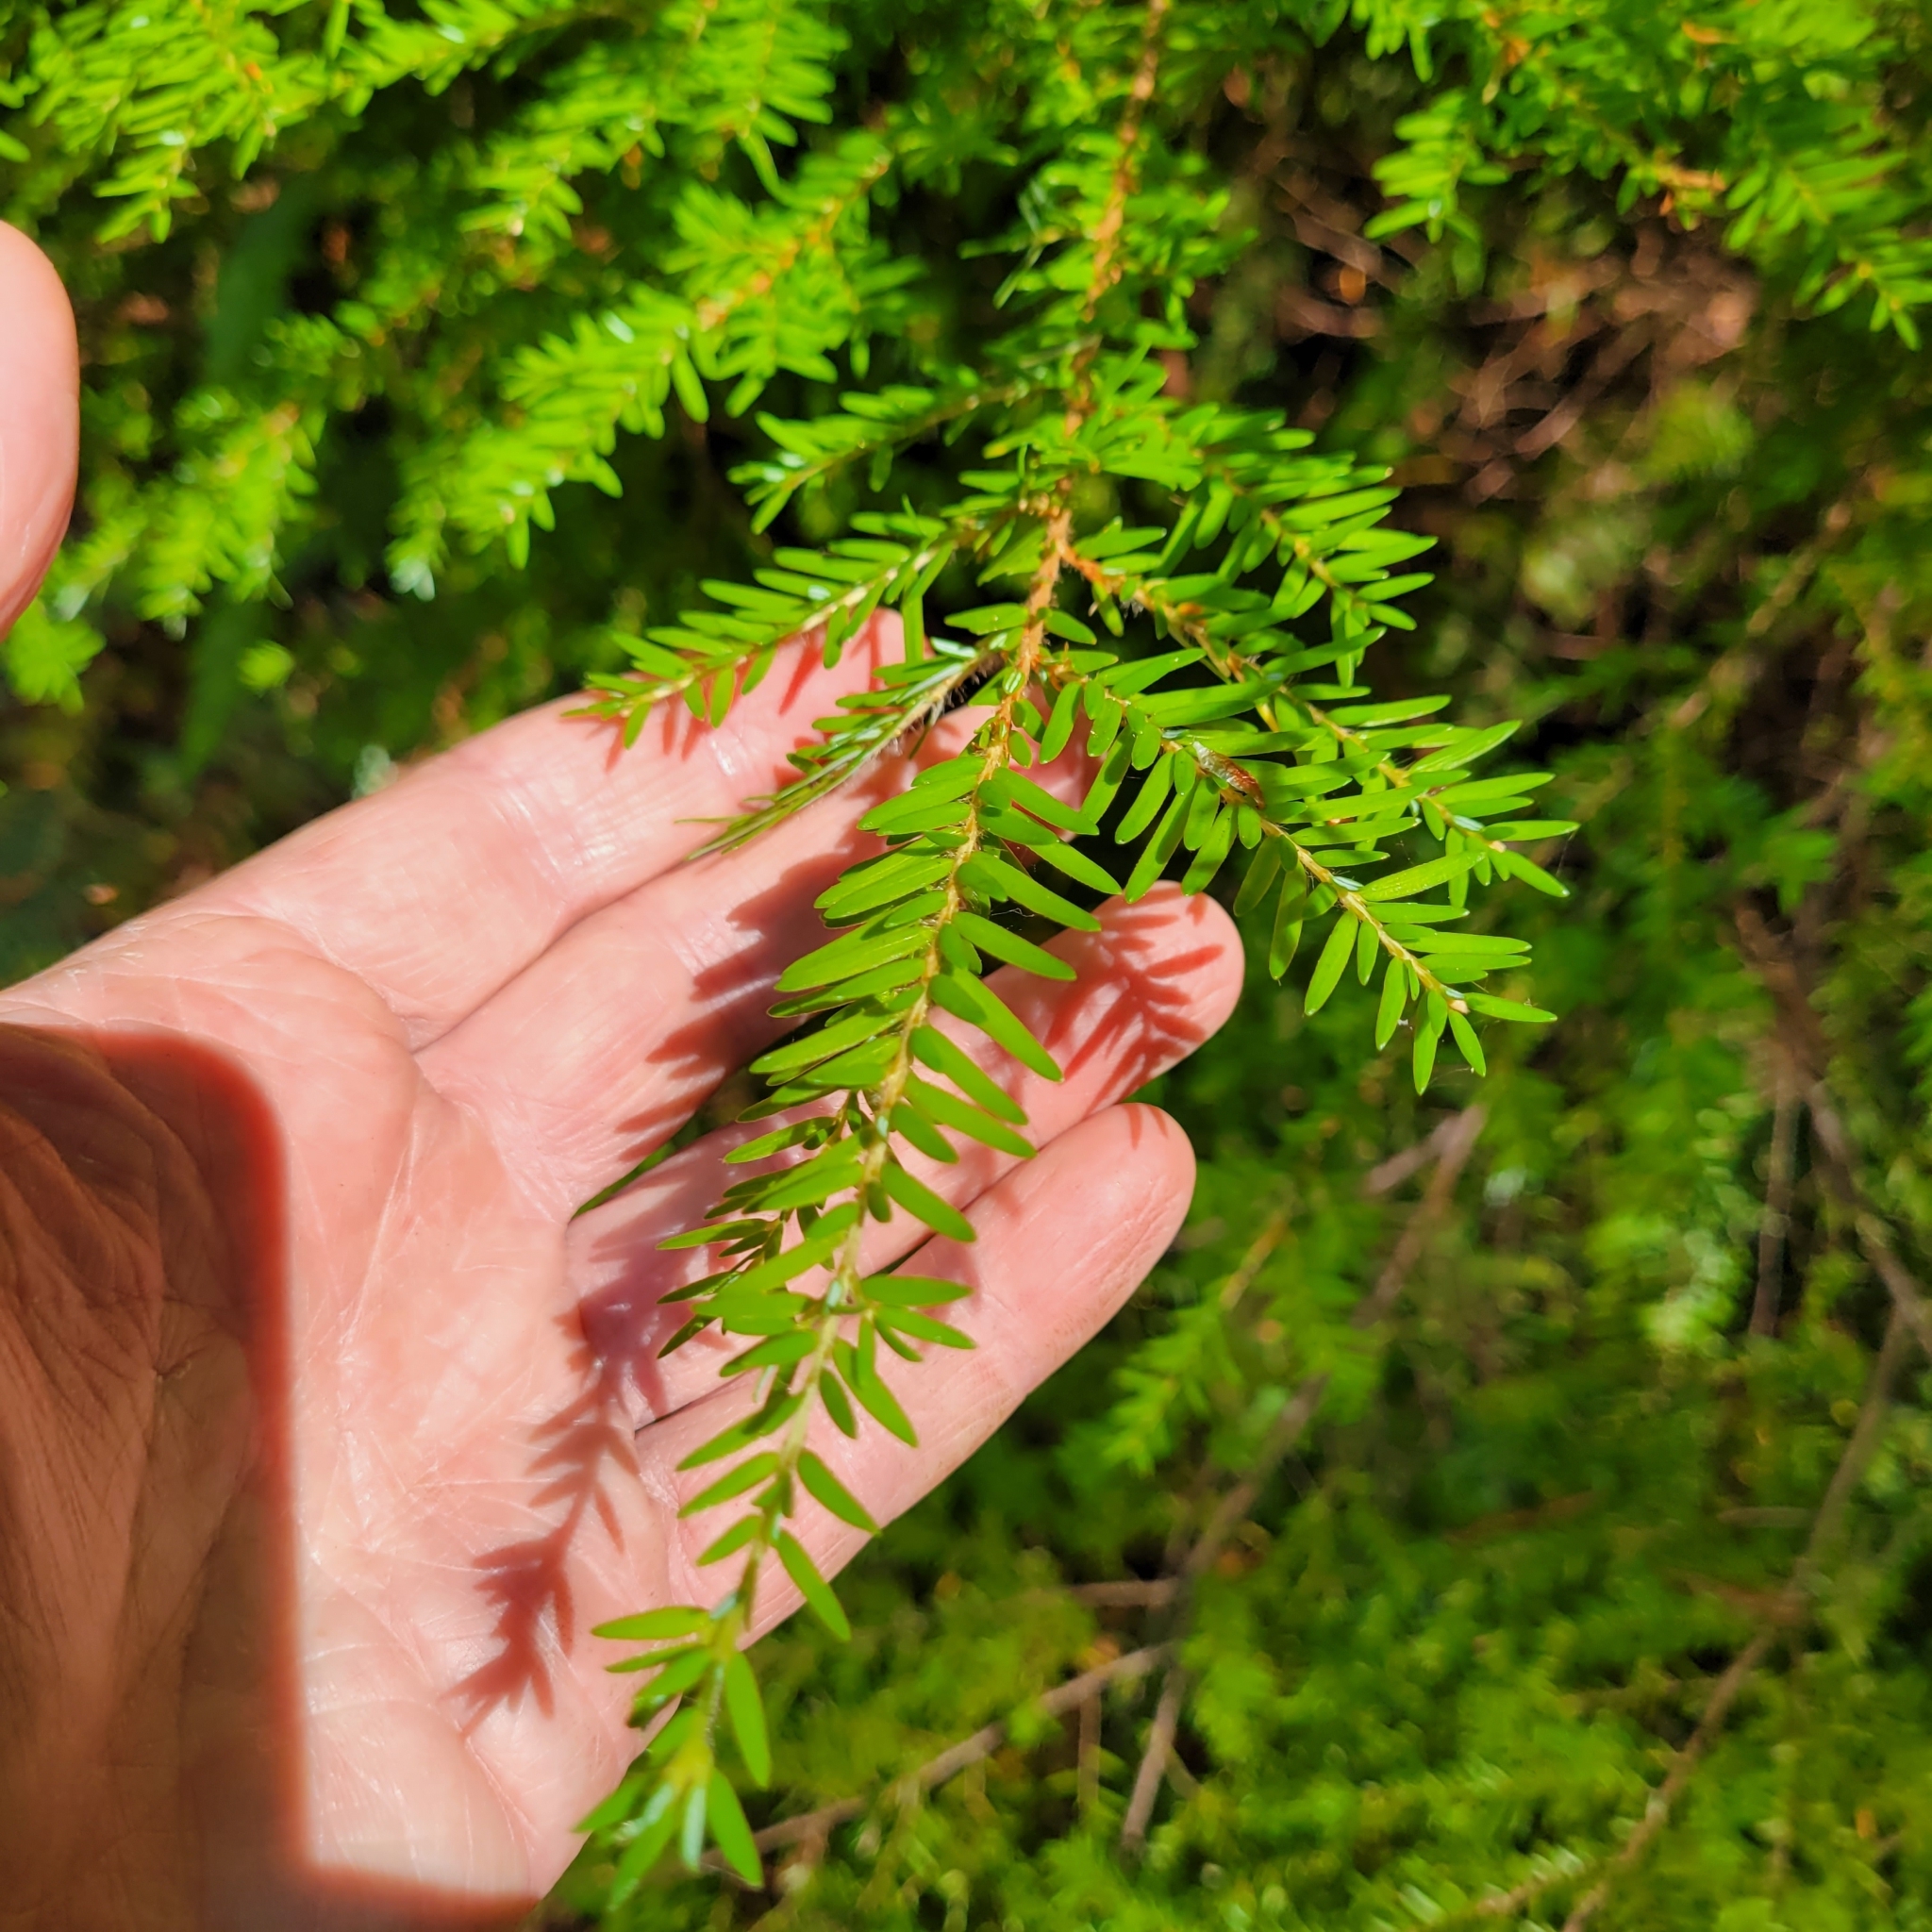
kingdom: Plantae
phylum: Tracheophyta
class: Pinopsida
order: Pinales
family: Pinaceae
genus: Tsuga
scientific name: Tsuga heterophylla
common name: Western hemlock
